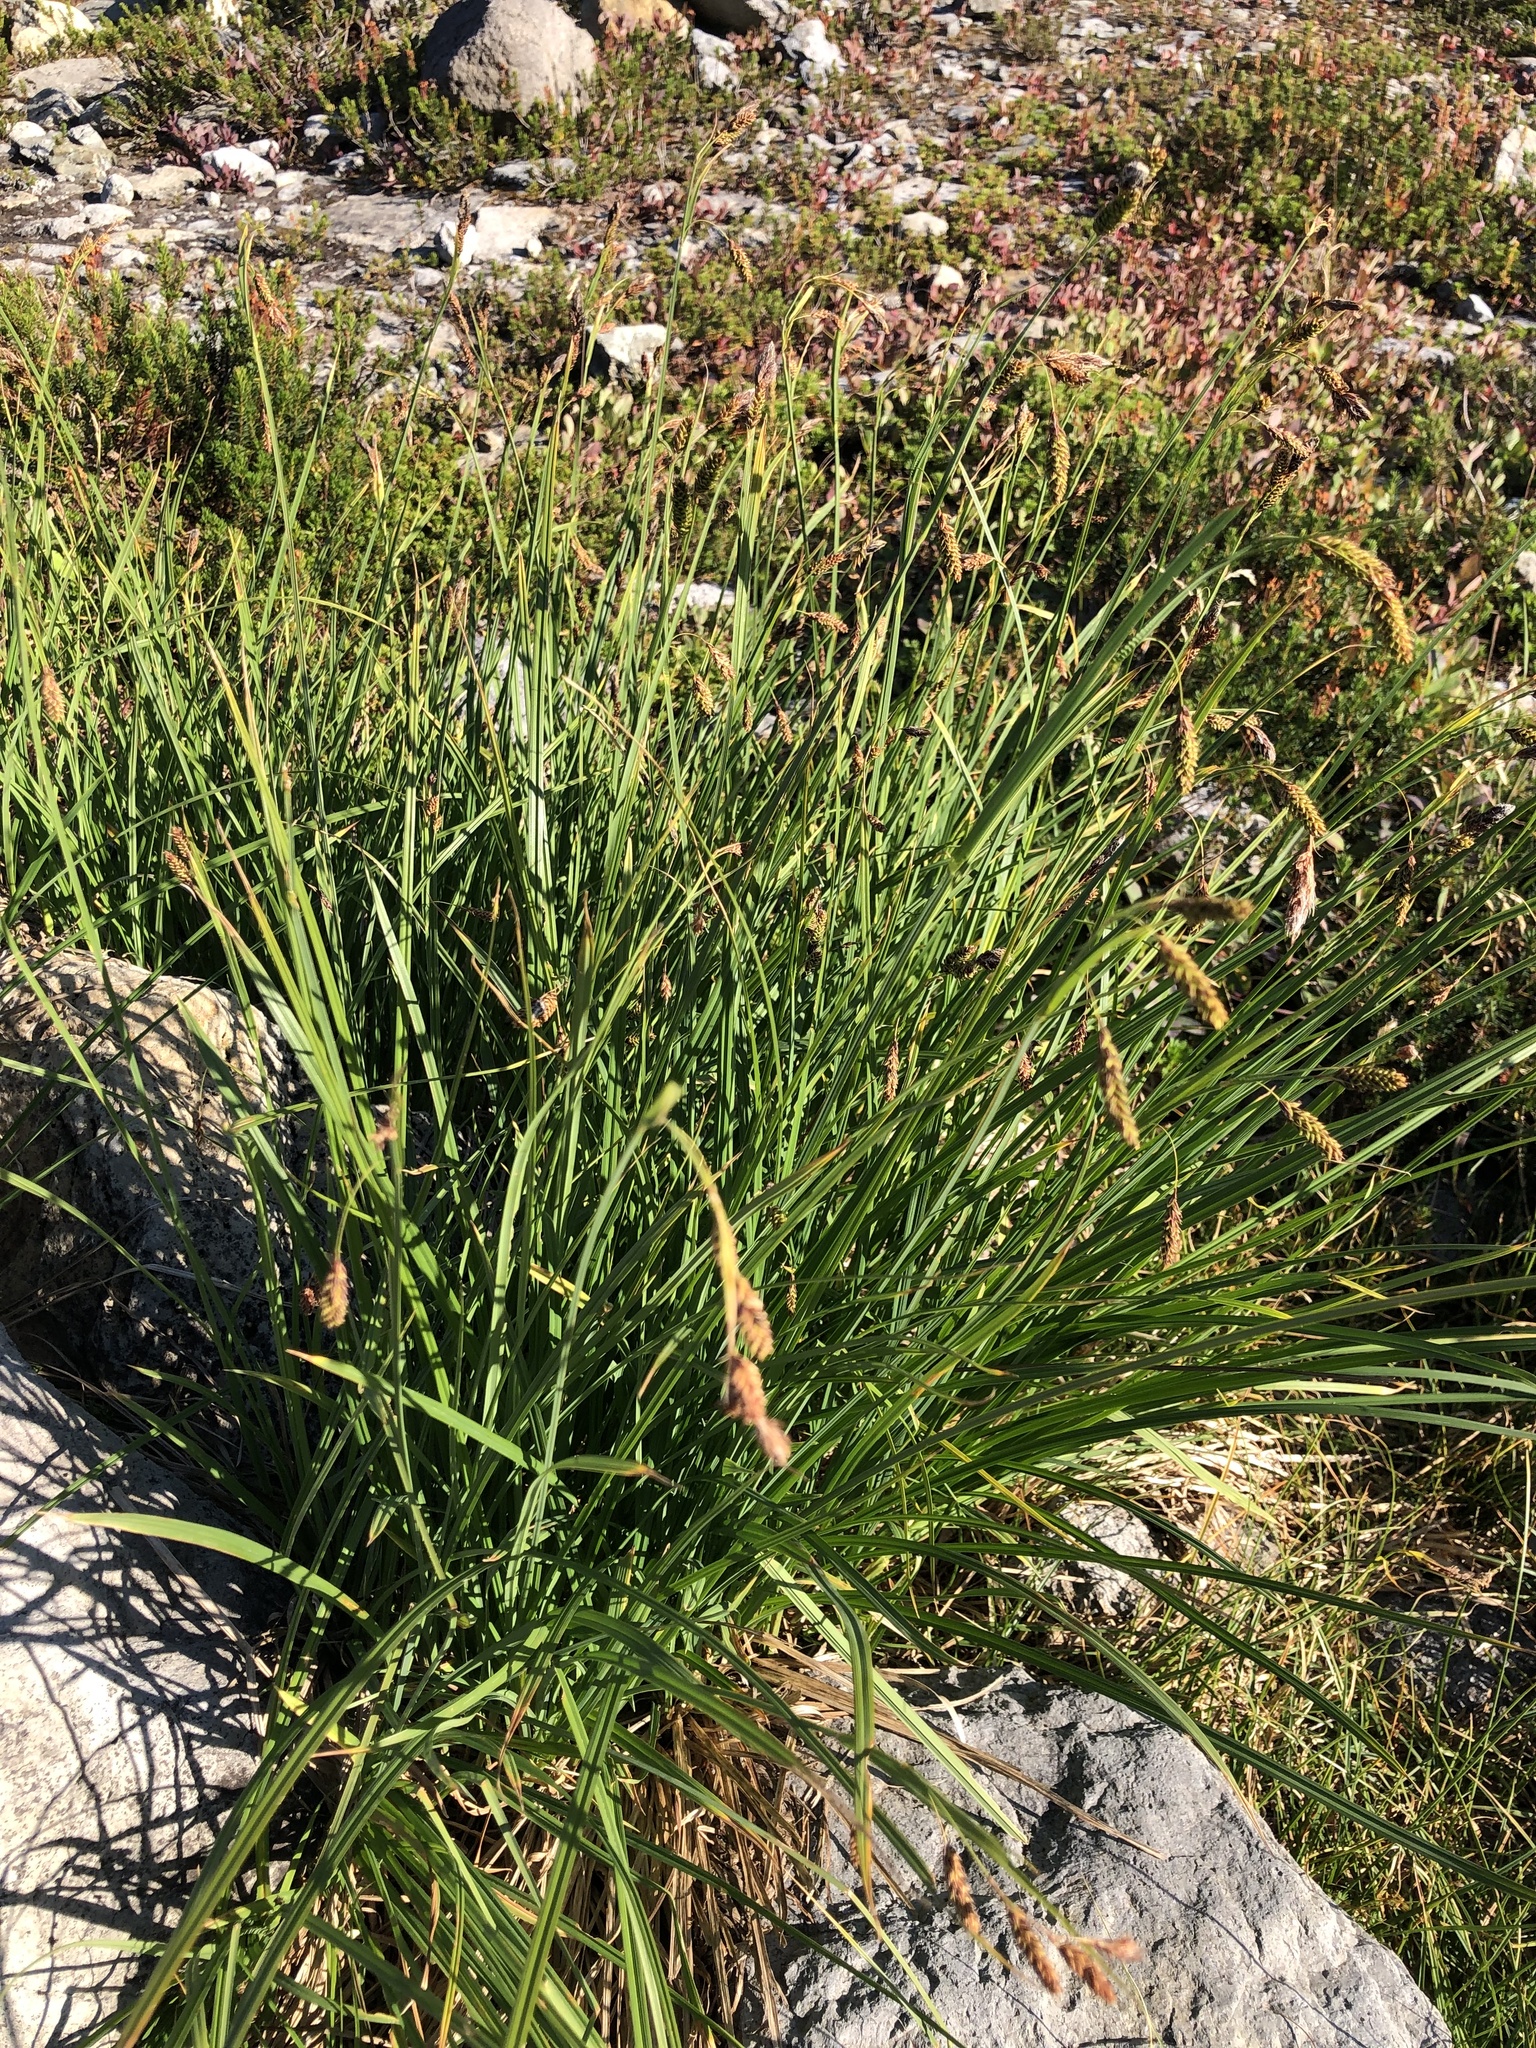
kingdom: Plantae
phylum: Tracheophyta
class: Liliopsida
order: Poales
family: Cyperaceae
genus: Carex
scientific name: Carex mertensii
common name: Mertens' sedge
